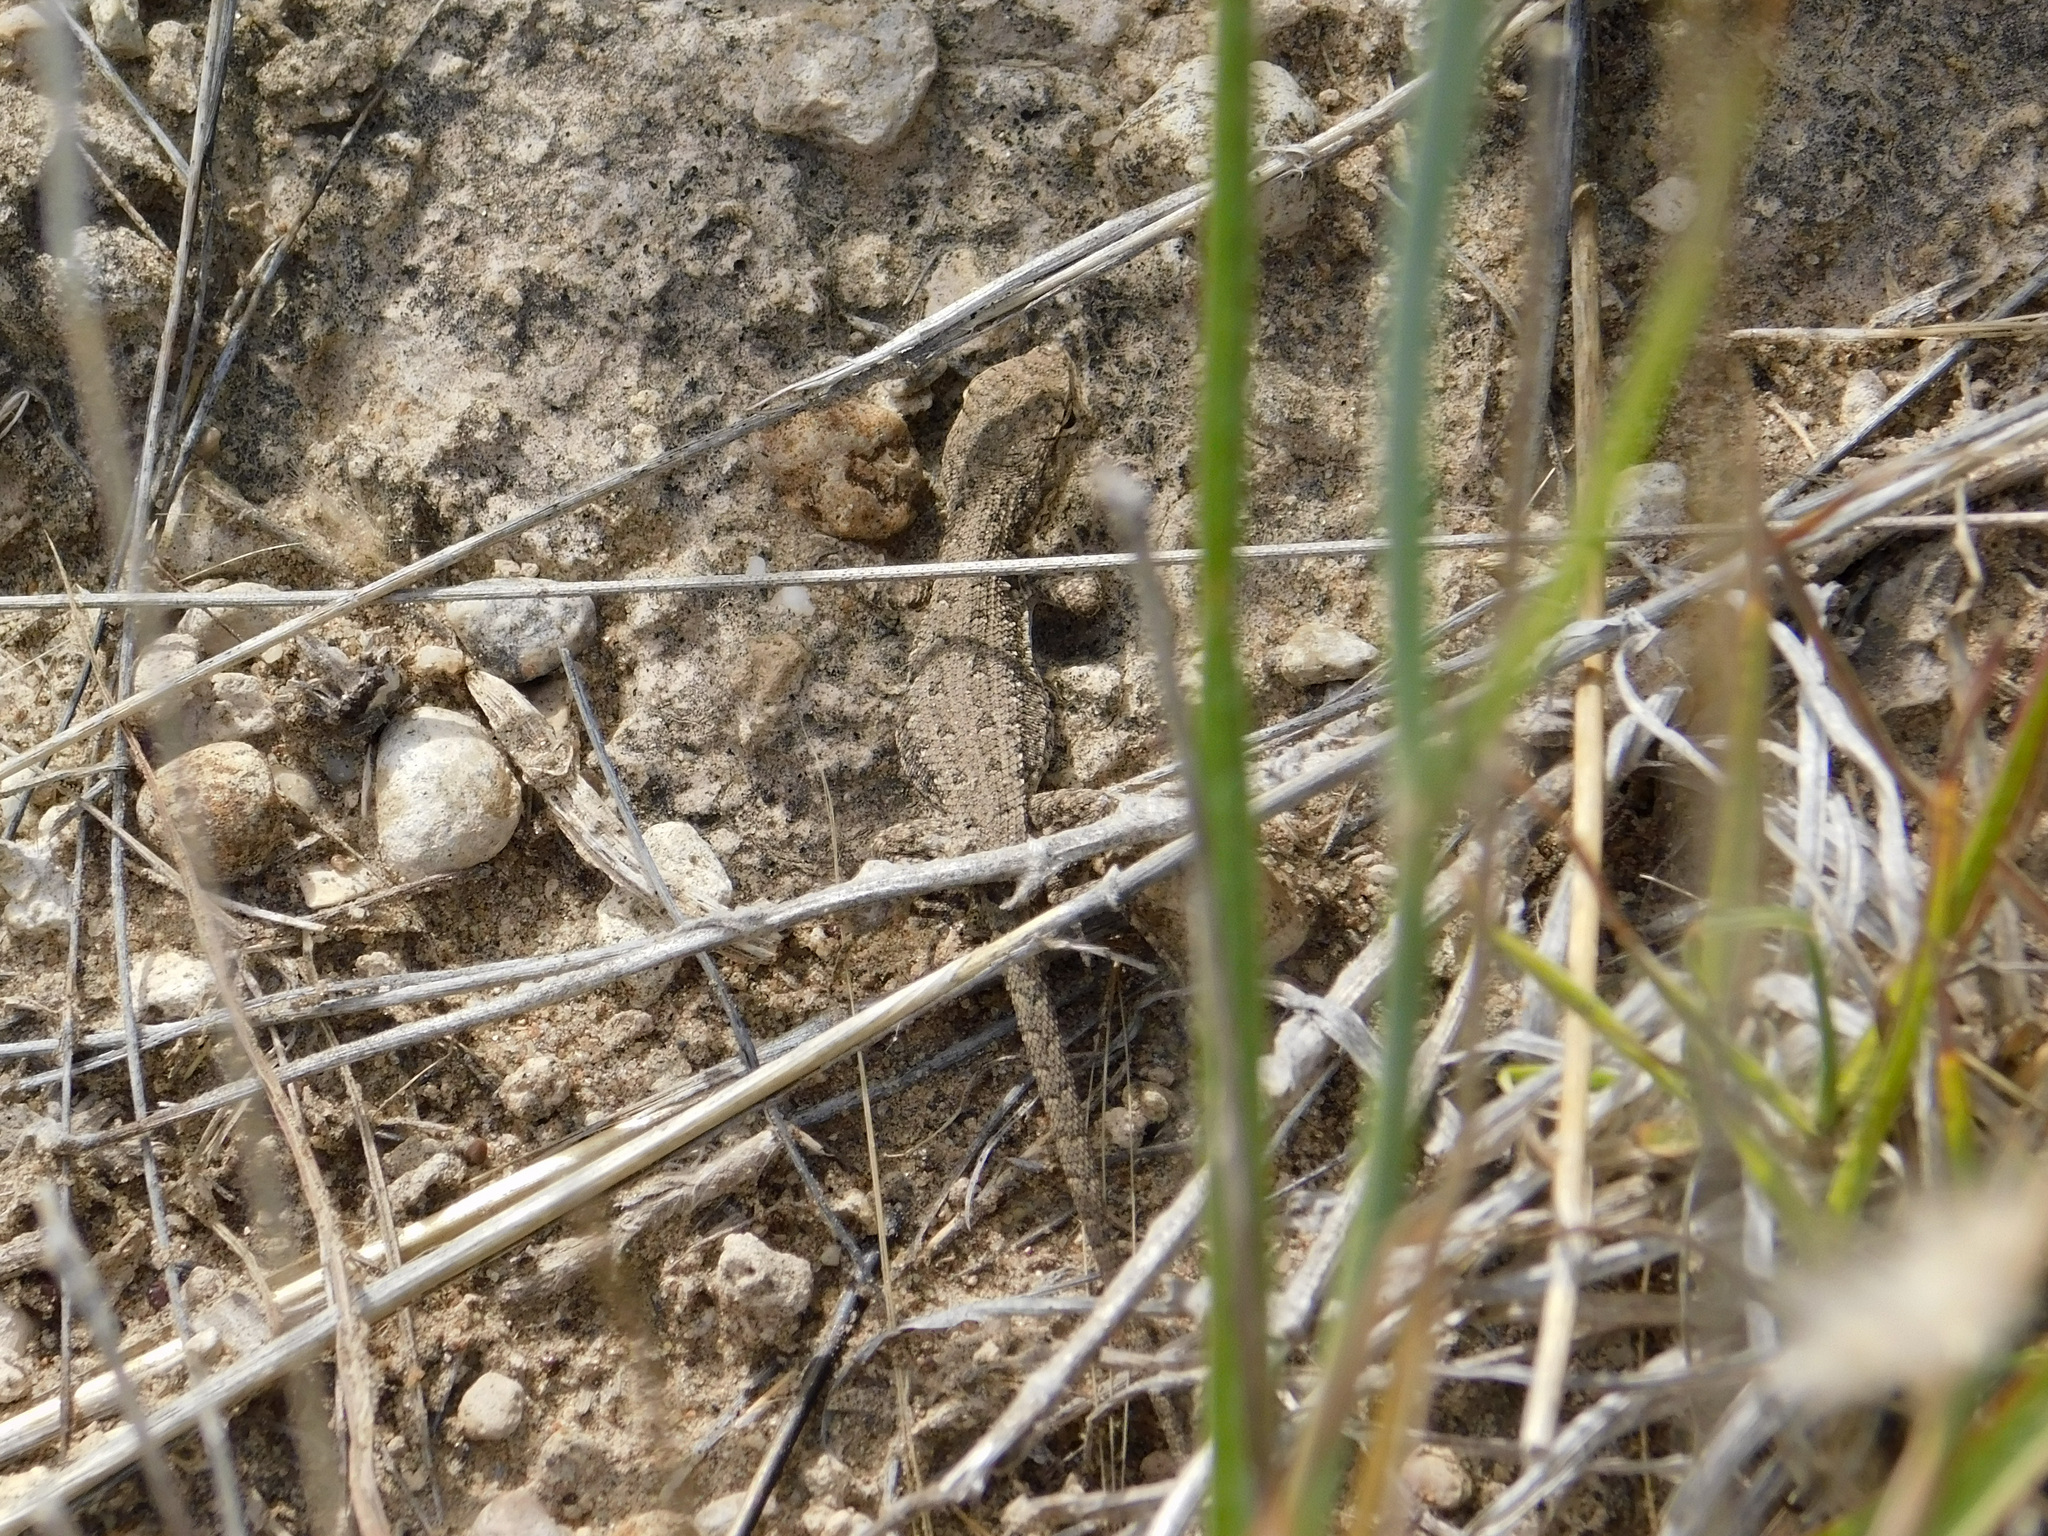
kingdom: Animalia
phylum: Chordata
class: Squamata
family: Liolaemidae
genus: Liolaemus
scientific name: Liolaemus wiegmannii
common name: Wiegmann's tree iguana
